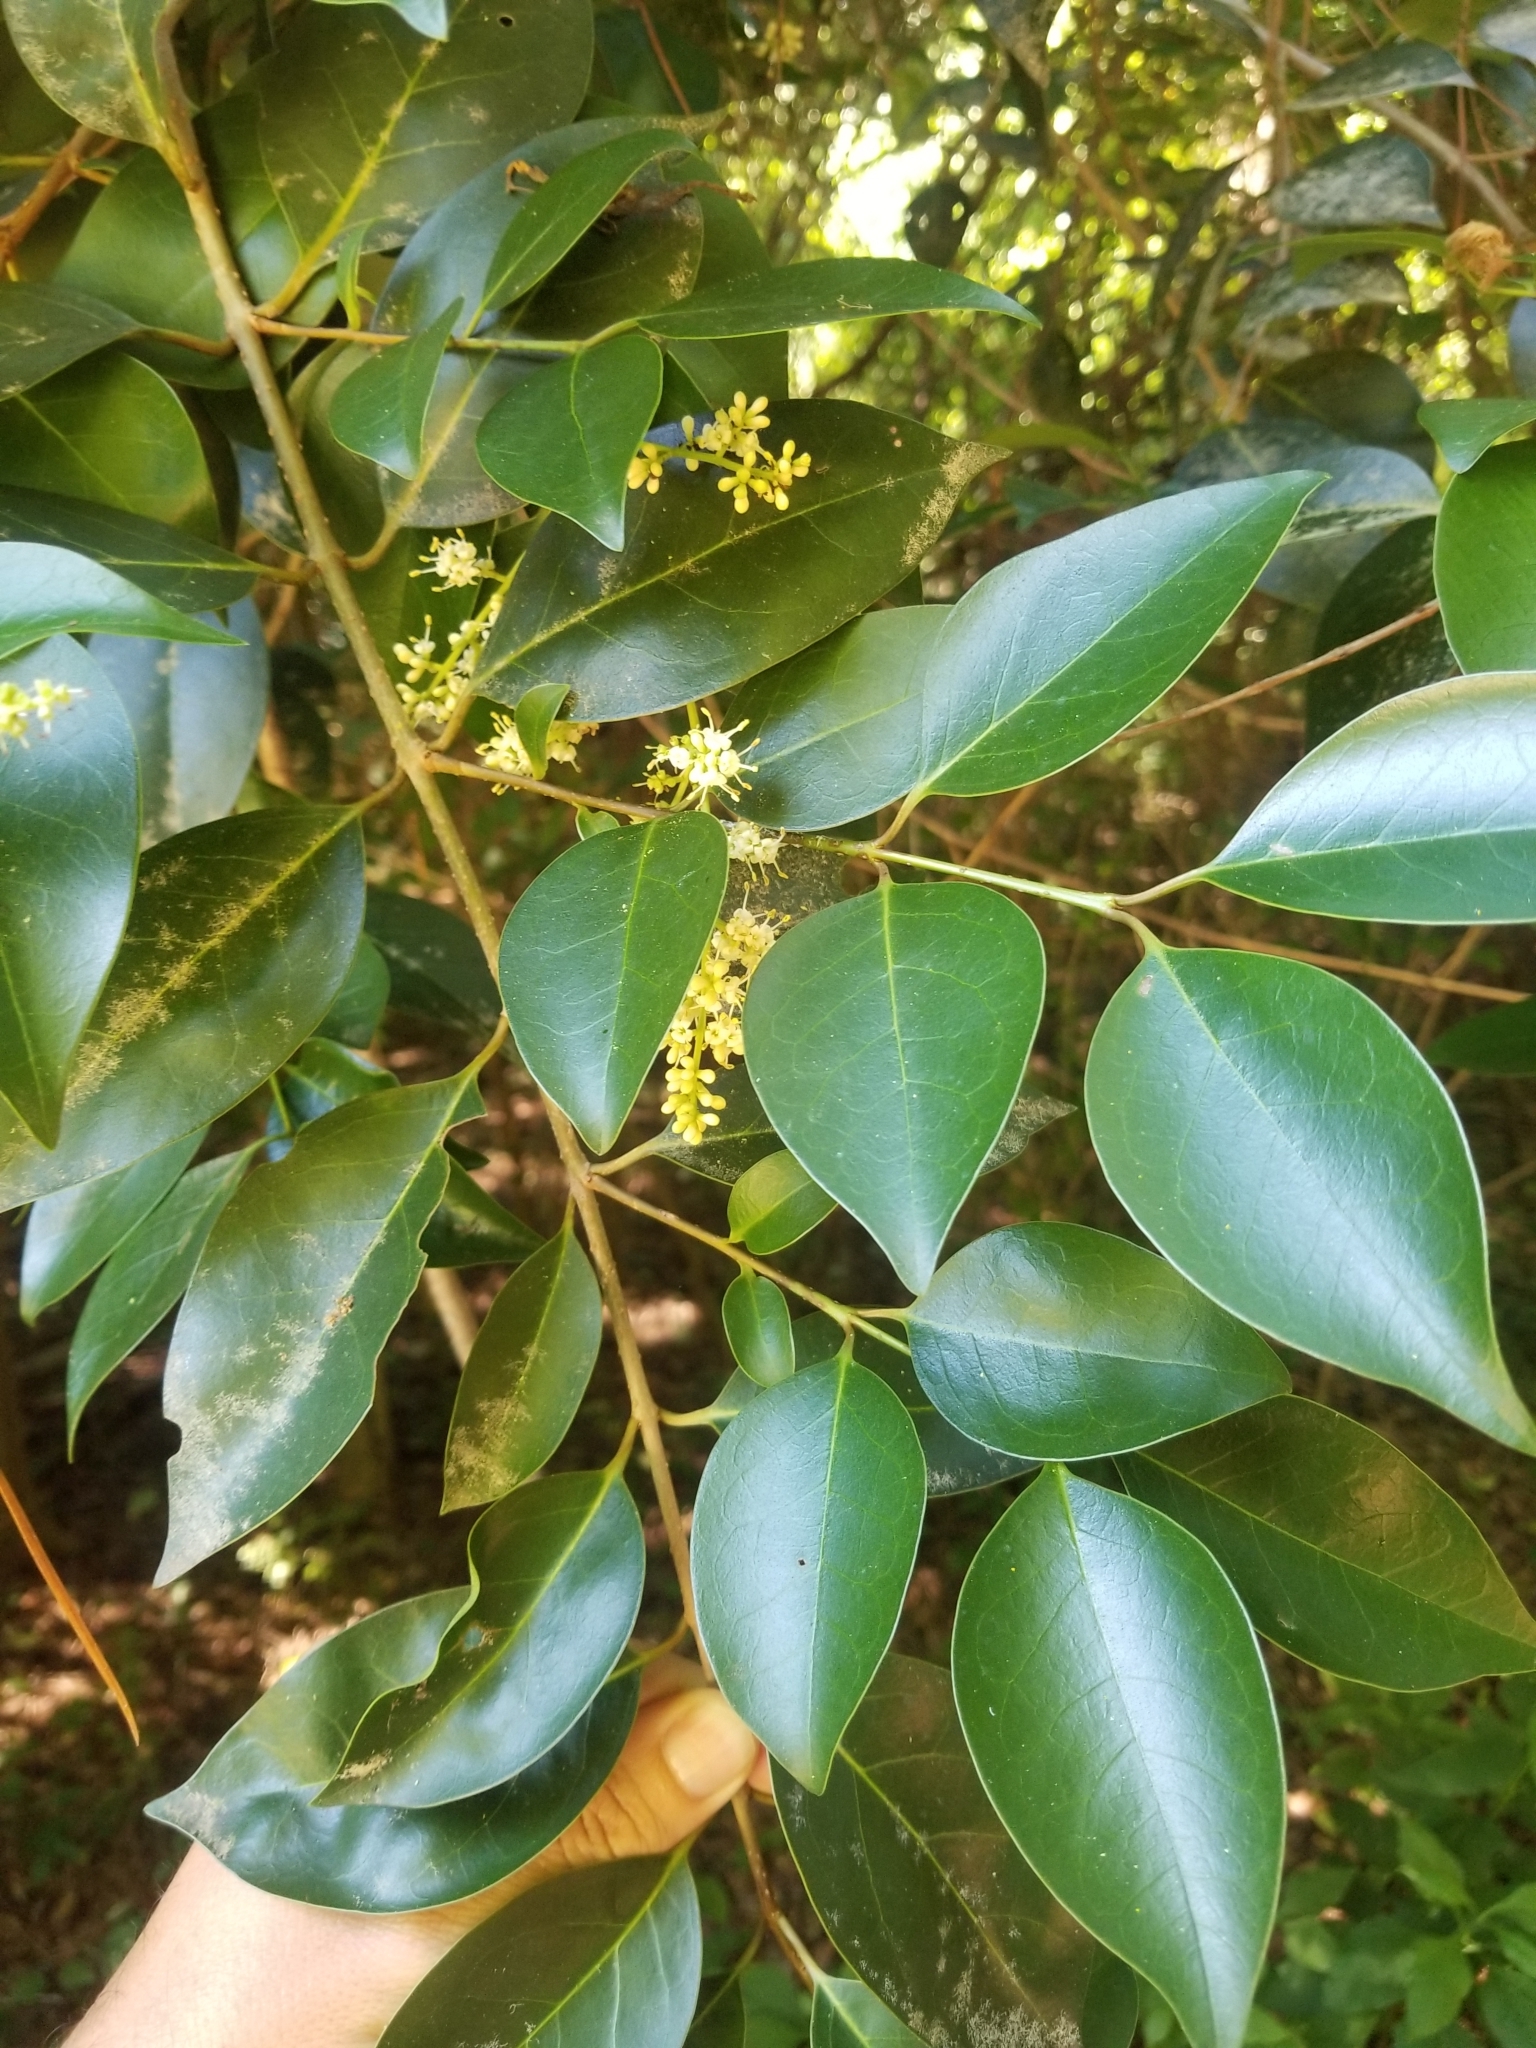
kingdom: Plantae
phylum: Tracheophyta
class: Magnoliopsida
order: Lamiales
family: Oleaceae
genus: Ligustrum
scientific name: Ligustrum lucidum
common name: Glossy privet
